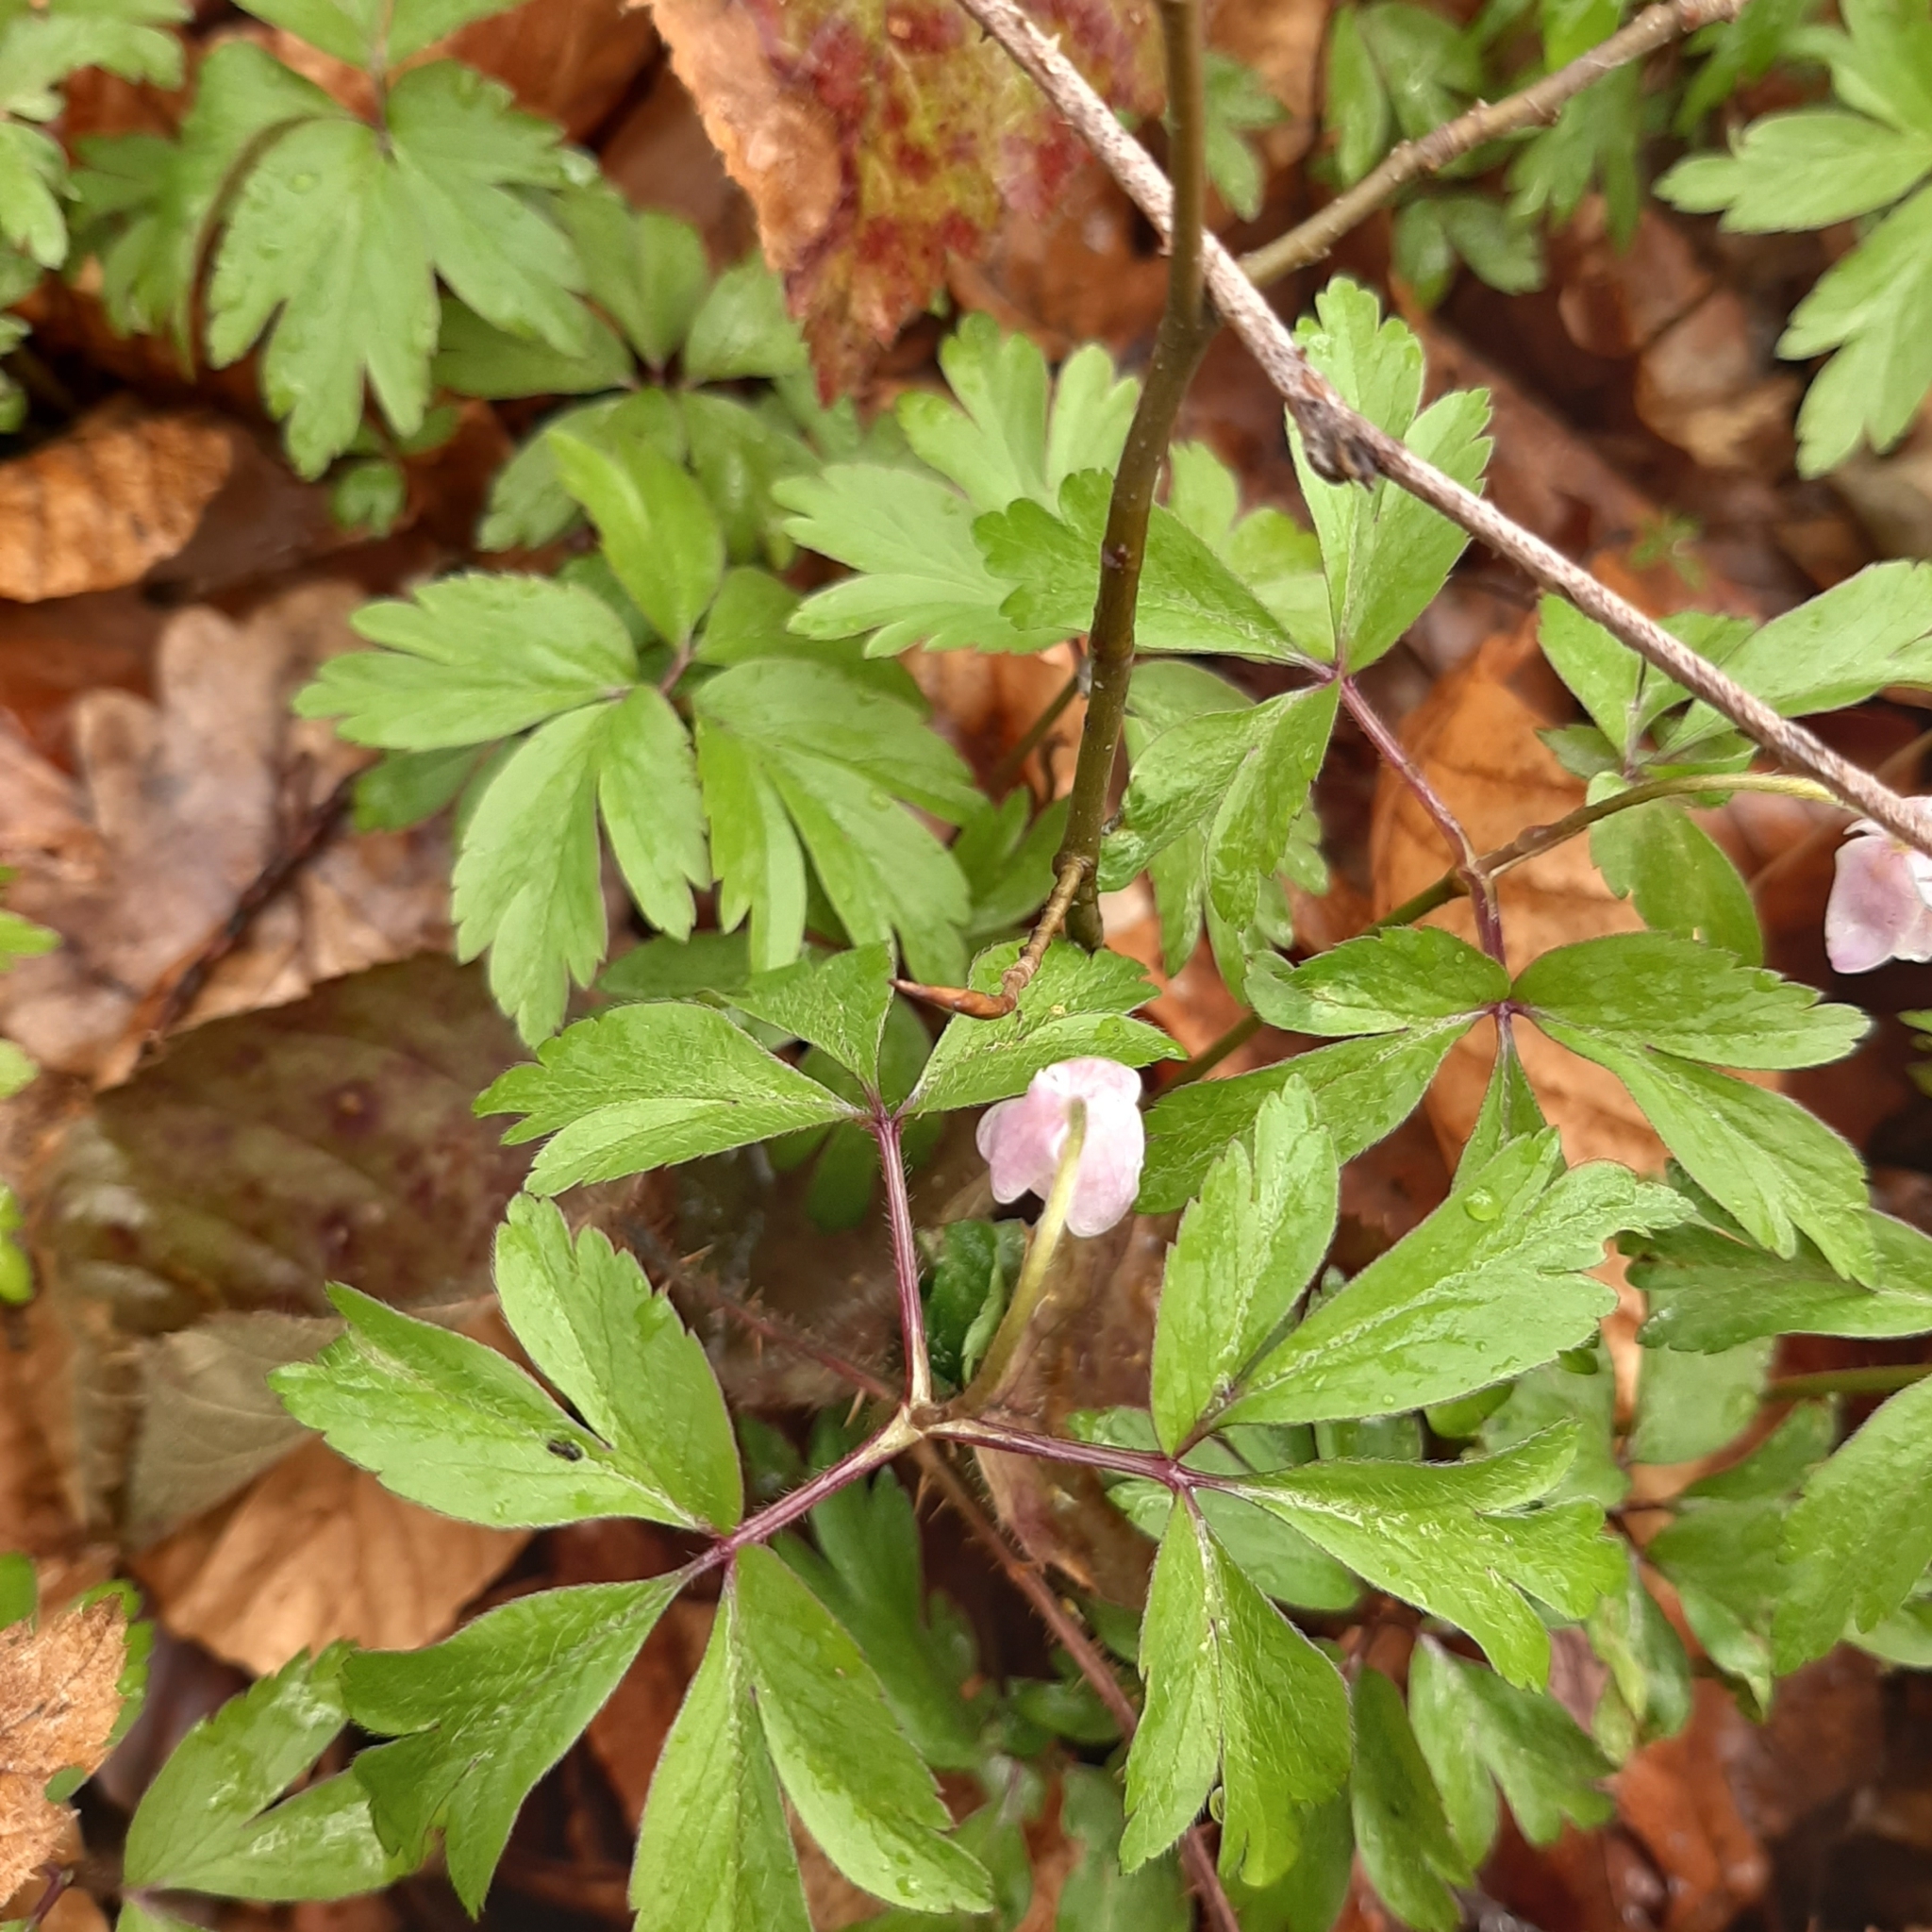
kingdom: Plantae
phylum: Tracheophyta
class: Magnoliopsida
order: Ranunculales
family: Ranunculaceae
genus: Anemone
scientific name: Anemone nemorosa
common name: Wood anemone
